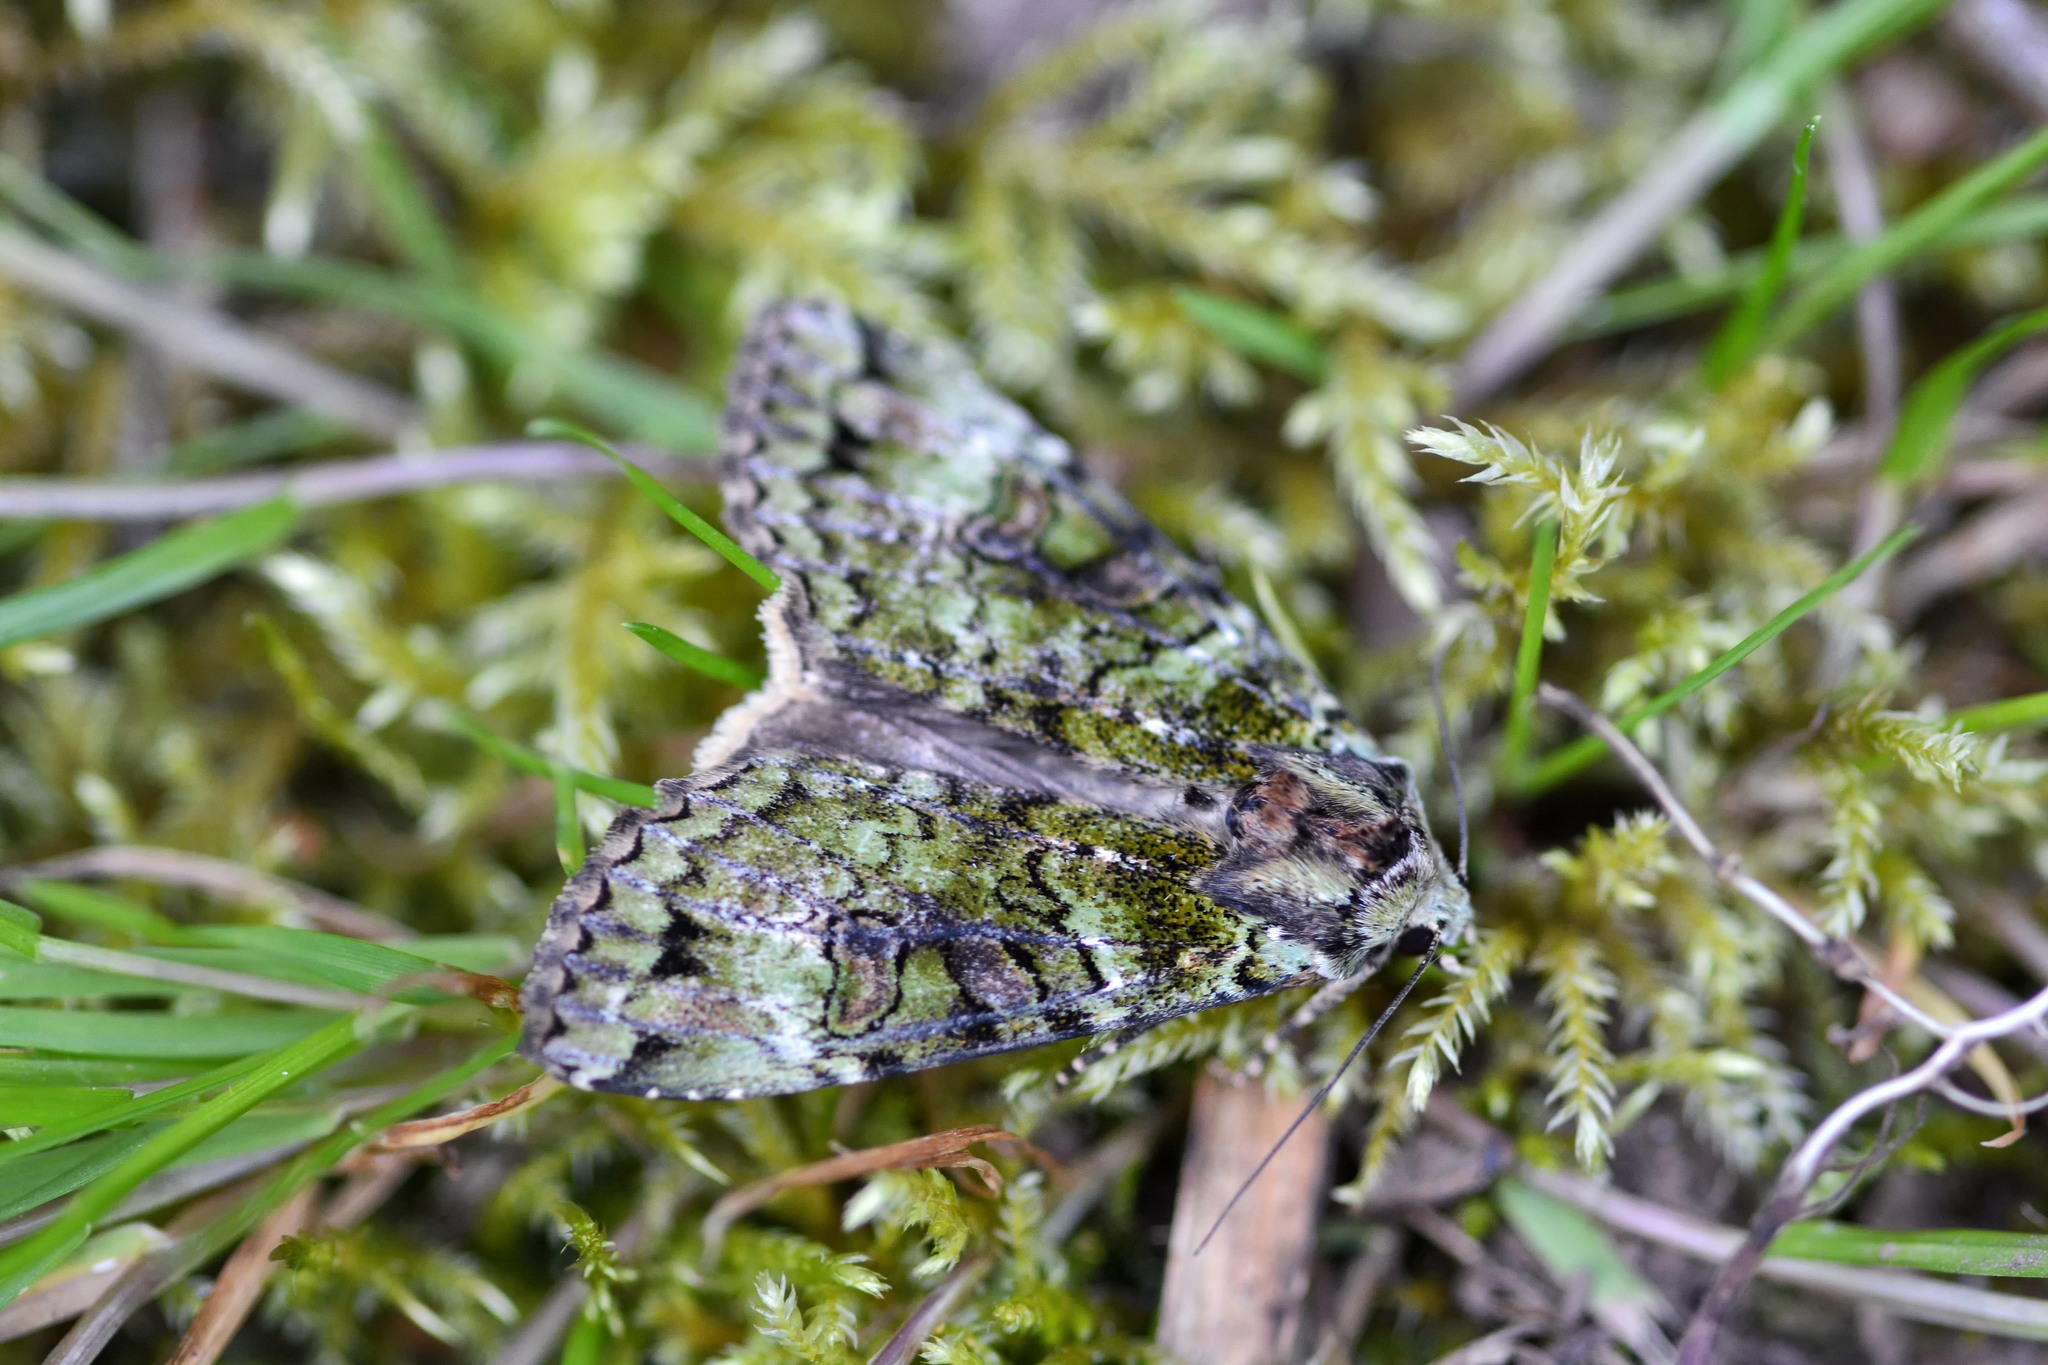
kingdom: Animalia
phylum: Arthropoda
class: Insecta
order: Lepidoptera
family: Noctuidae
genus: Anaplectoides
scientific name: Anaplectoides prasina
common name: Green arches
